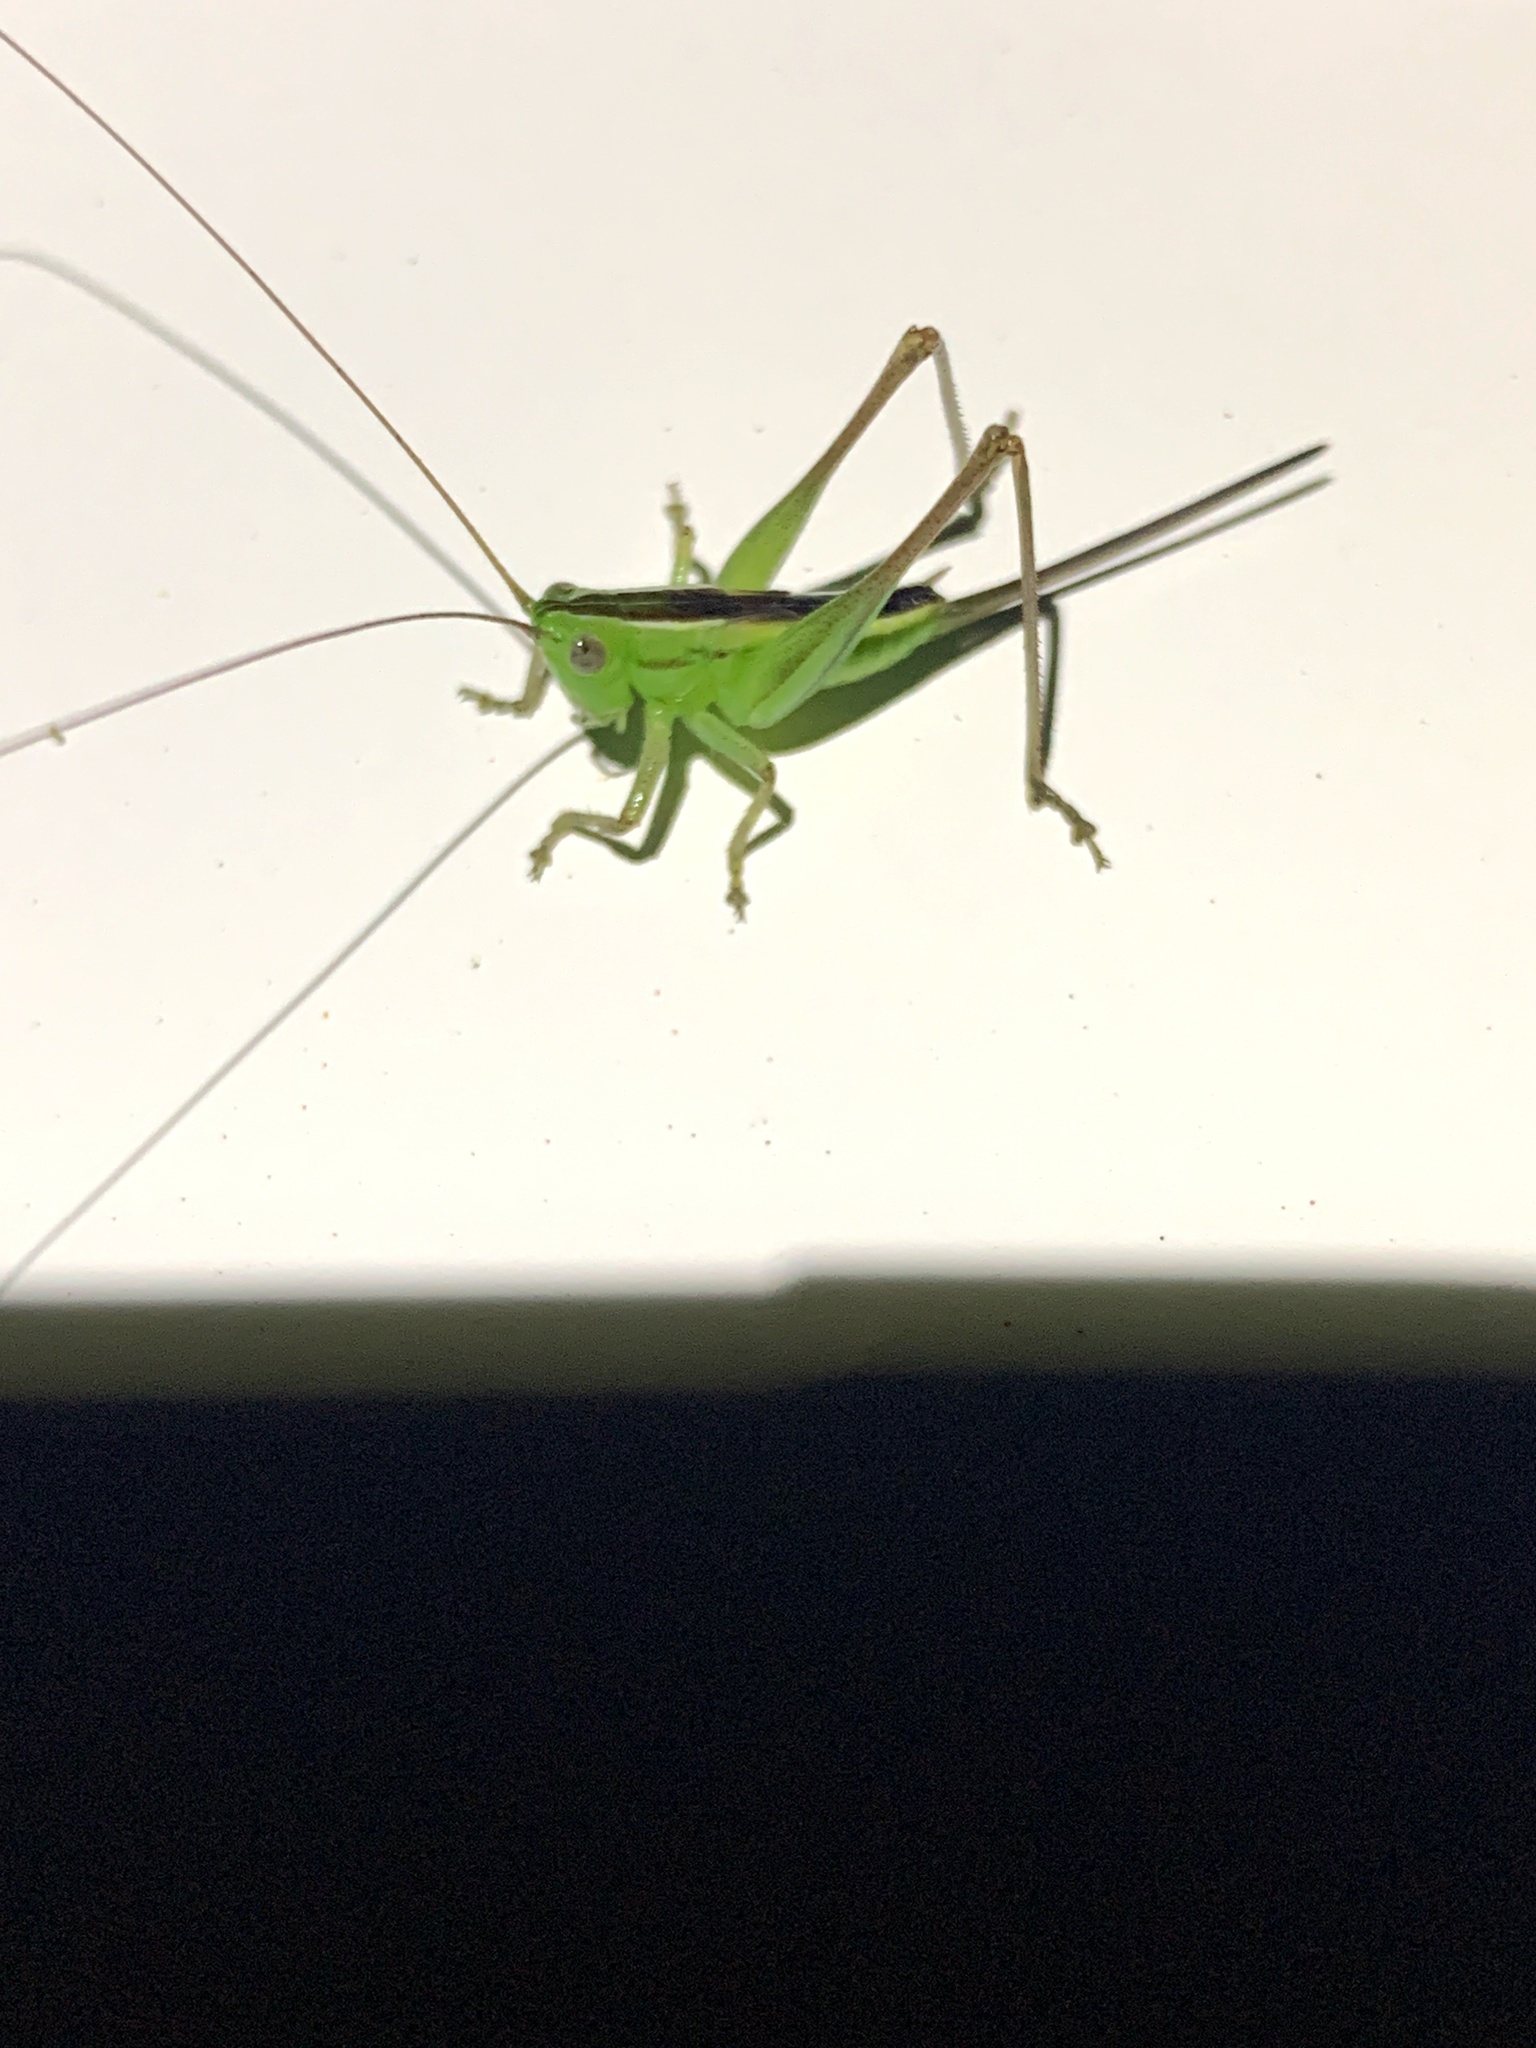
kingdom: Animalia
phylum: Arthropoda
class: Insecta
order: Orthoptera
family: Tettigoniidae
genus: Conocephalus
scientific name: Conocephalus albescens
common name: Whitish meadow katydid
